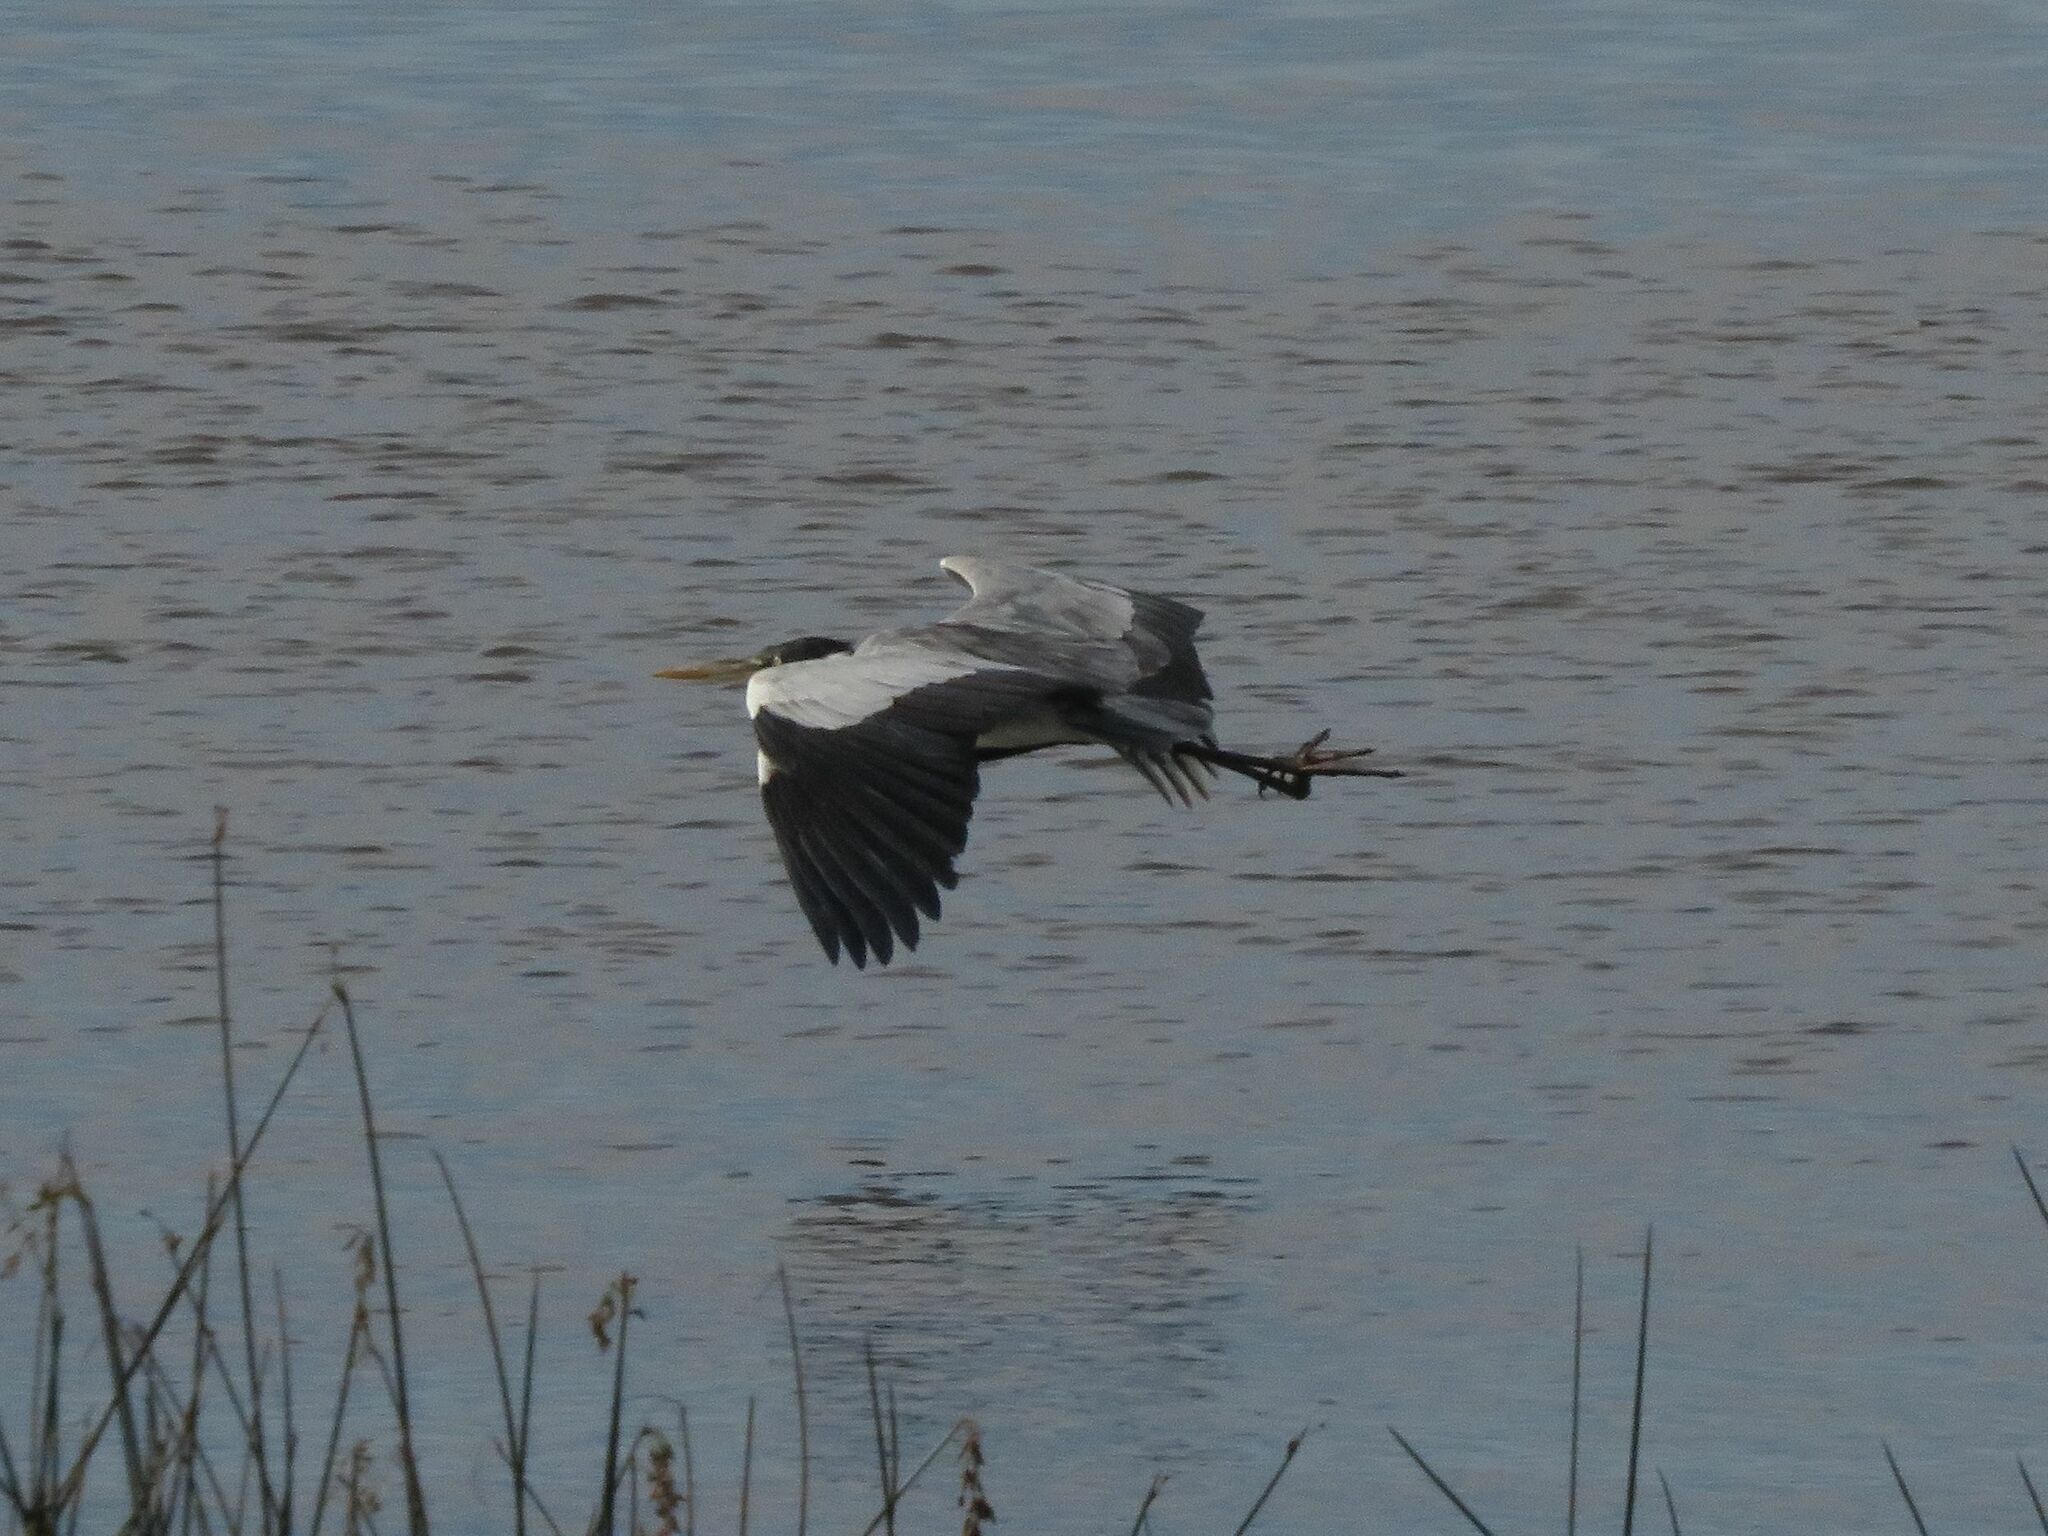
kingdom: Animalia
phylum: Chordata
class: Aves
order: Pelecaniformes
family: Ardeidae
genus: Ardea
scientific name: Ardea cocoi
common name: Cocoi heron
